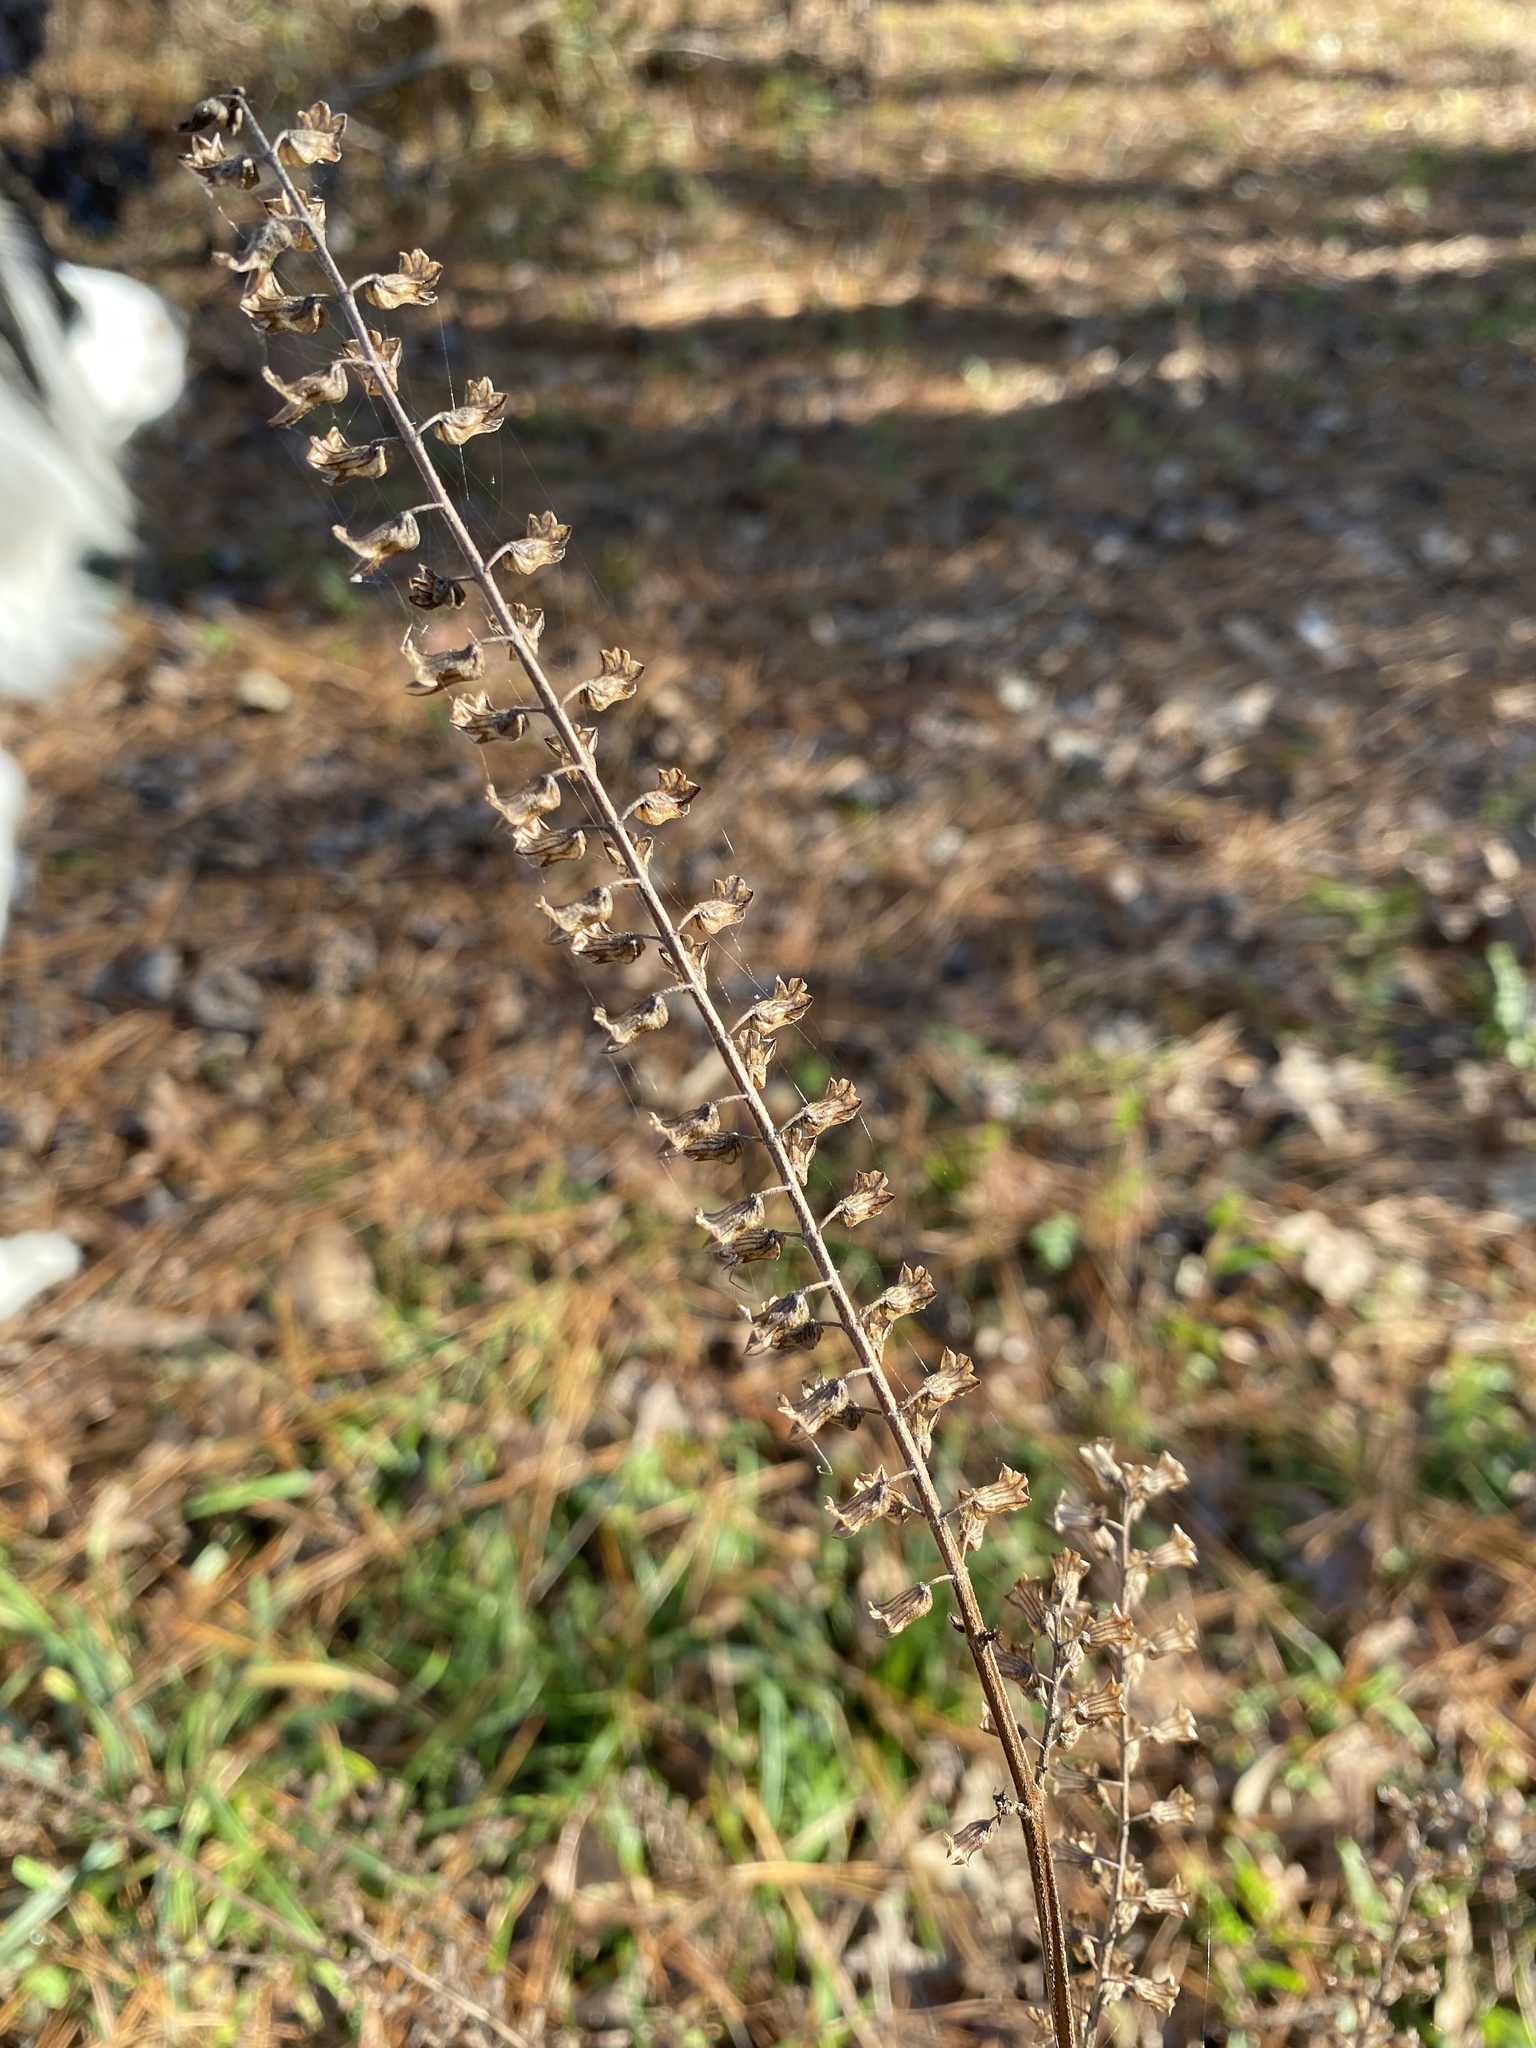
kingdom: Plantae
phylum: Tracheophyta
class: Magnoliopsida
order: Lamiales
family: Lamiaceae
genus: Perilla
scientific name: Perilla frutescens
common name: Perilla
